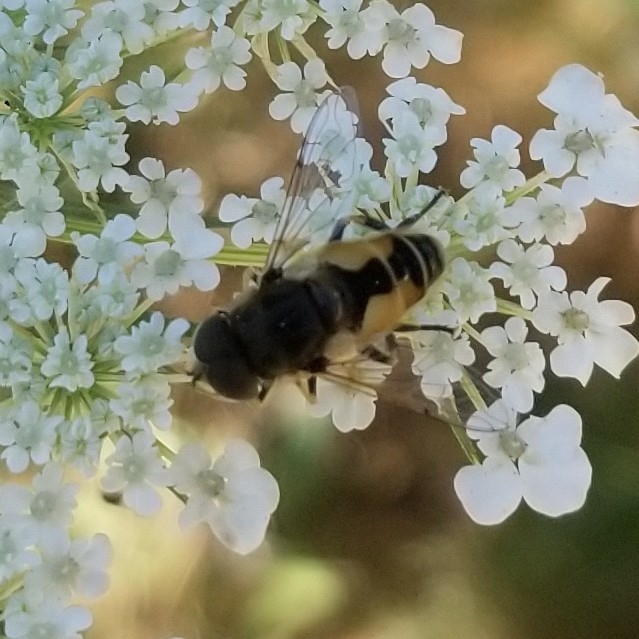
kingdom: Animalia
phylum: Arthropoda
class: Insecta
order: Diptera
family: Syrphidae
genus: Eristalis
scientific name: Eristalis arbustorum
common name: Hover fly
